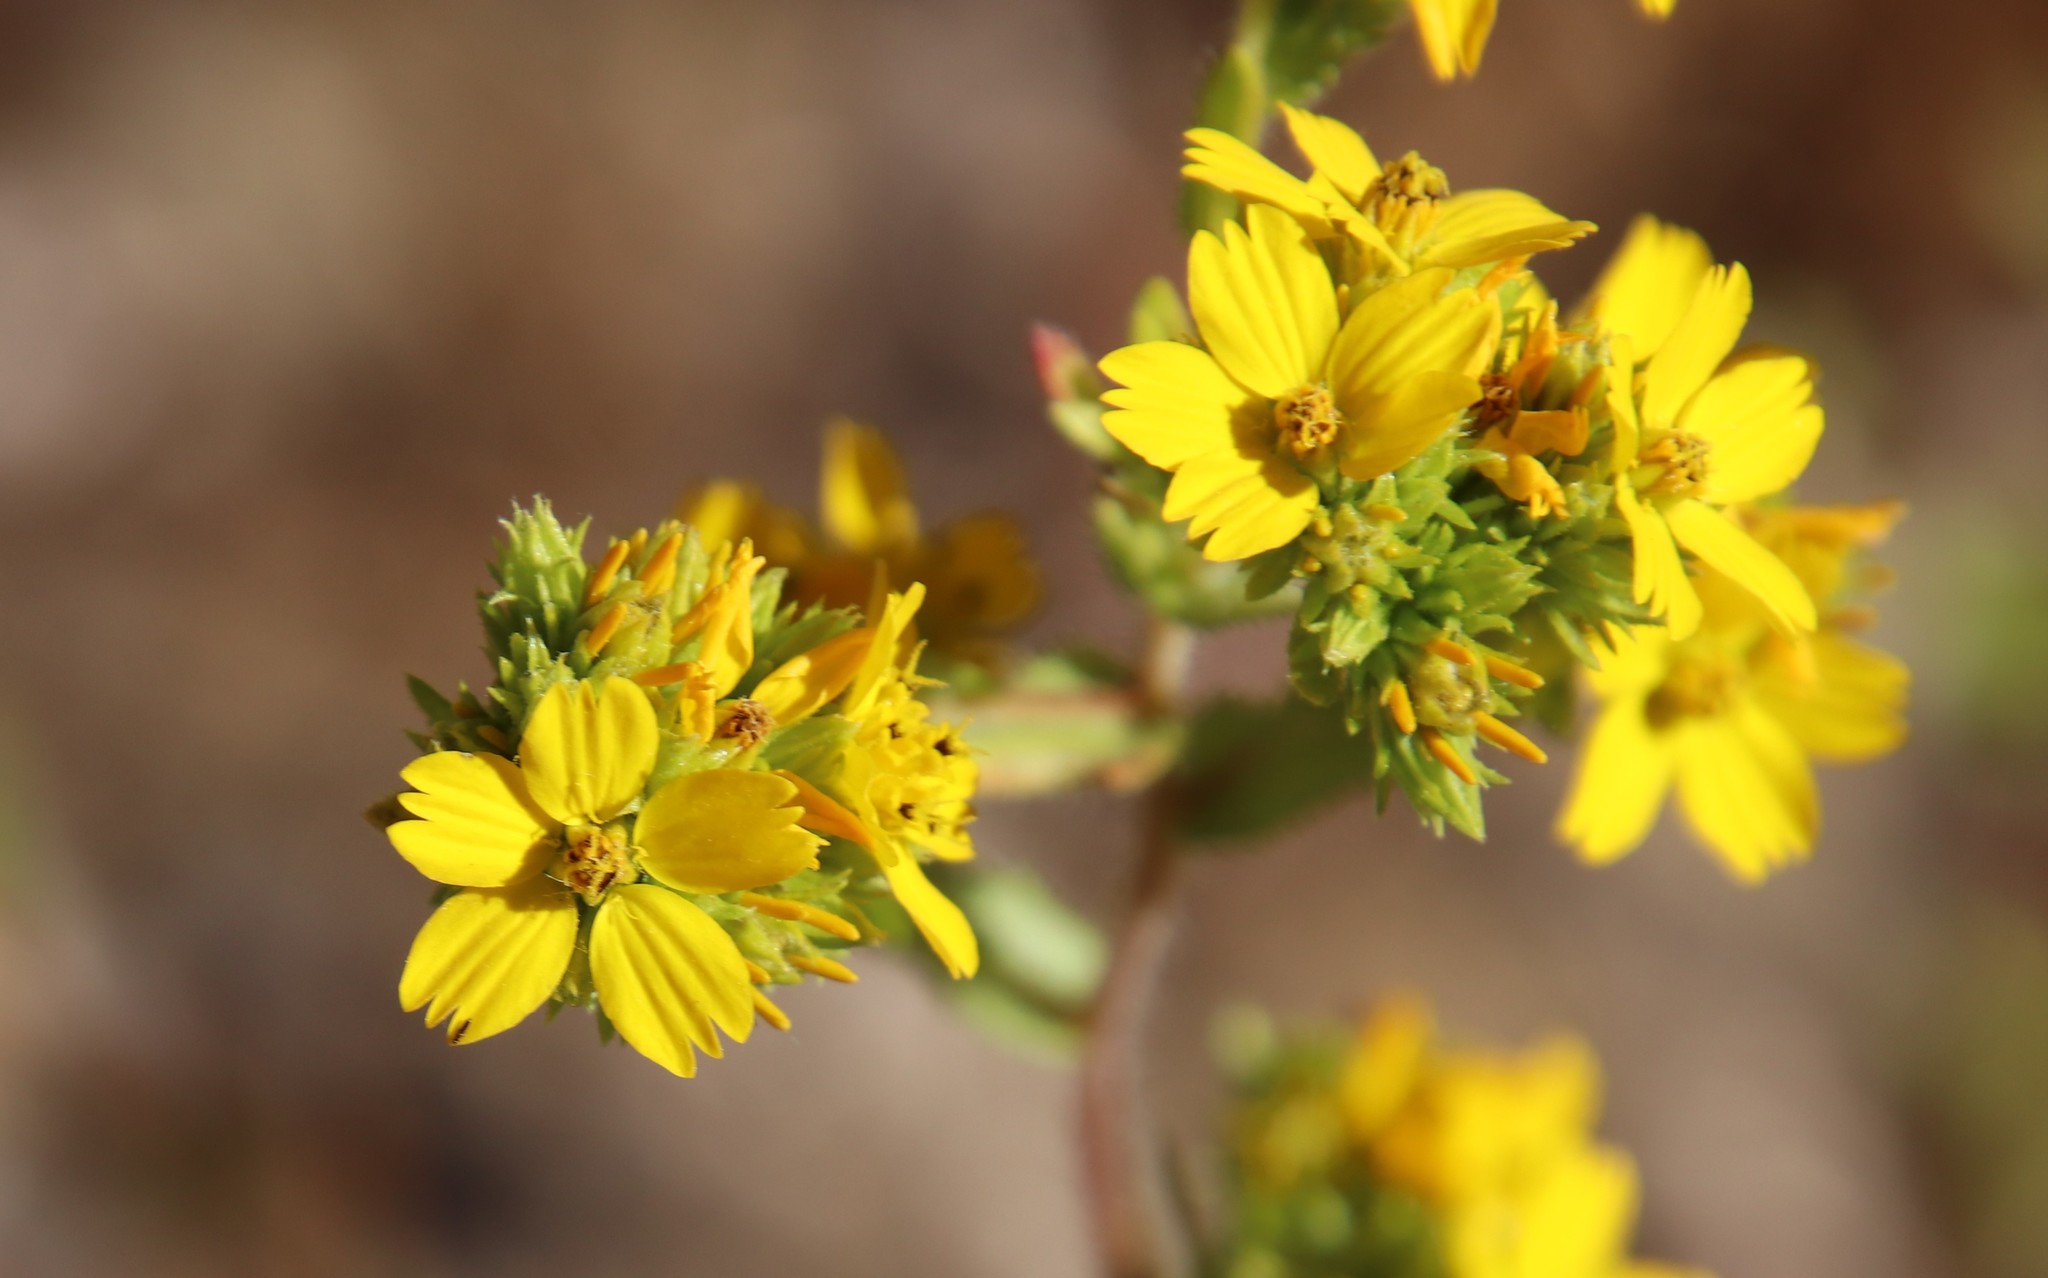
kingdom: Plantae
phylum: Tracheophyta
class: Magnoliopsida
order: Asterales
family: Asteraceae
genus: Deinandra
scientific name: Deinandra fasciculata
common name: Clustered tarweed
